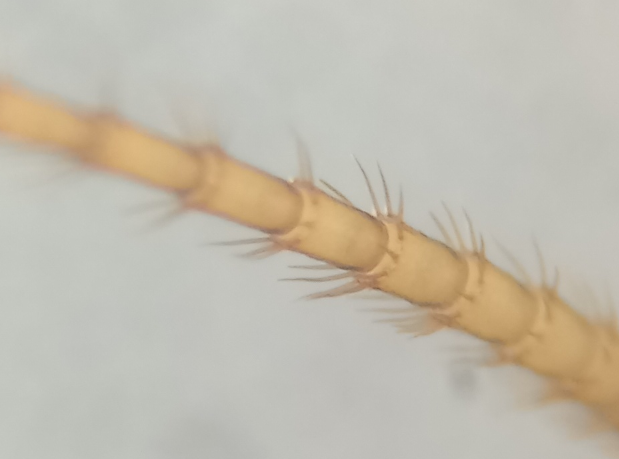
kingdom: Animalia
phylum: Arthropoda
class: Insecta
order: Plecoptera
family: Nemouridae
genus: Nemoura
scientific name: Nemoura flexuosa
